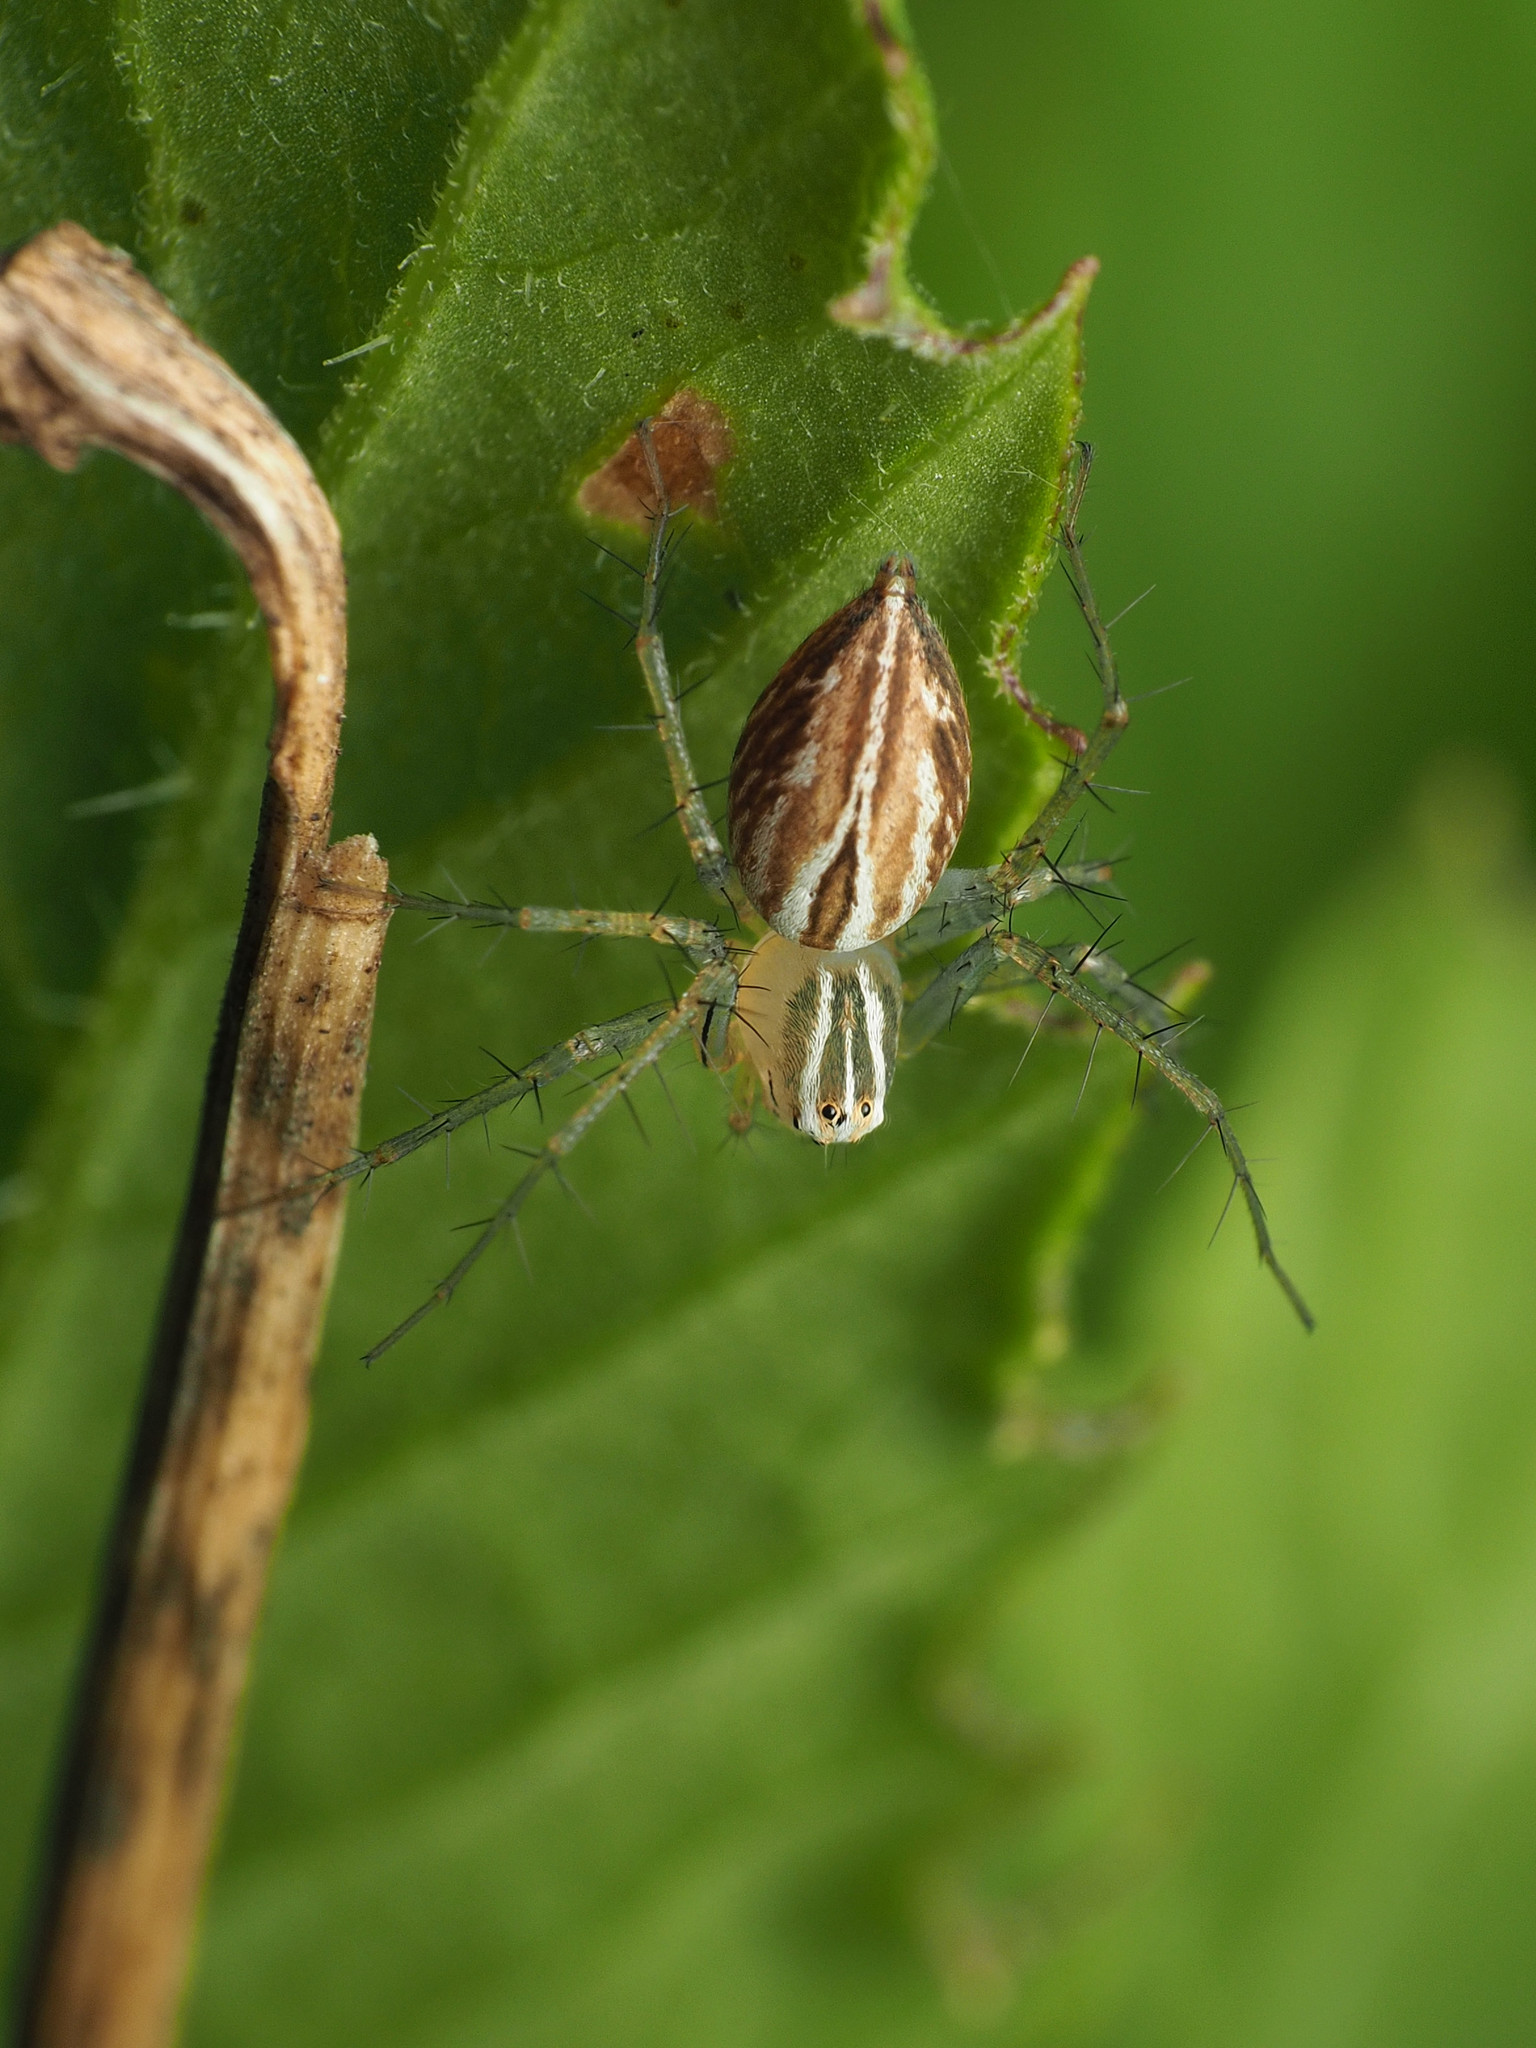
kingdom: Animalia
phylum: Arthropoda
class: Arachnida
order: Araneae
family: Oxyopidae
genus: Oxyopes
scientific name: Oxyopes salticus
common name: Lynx spiders
